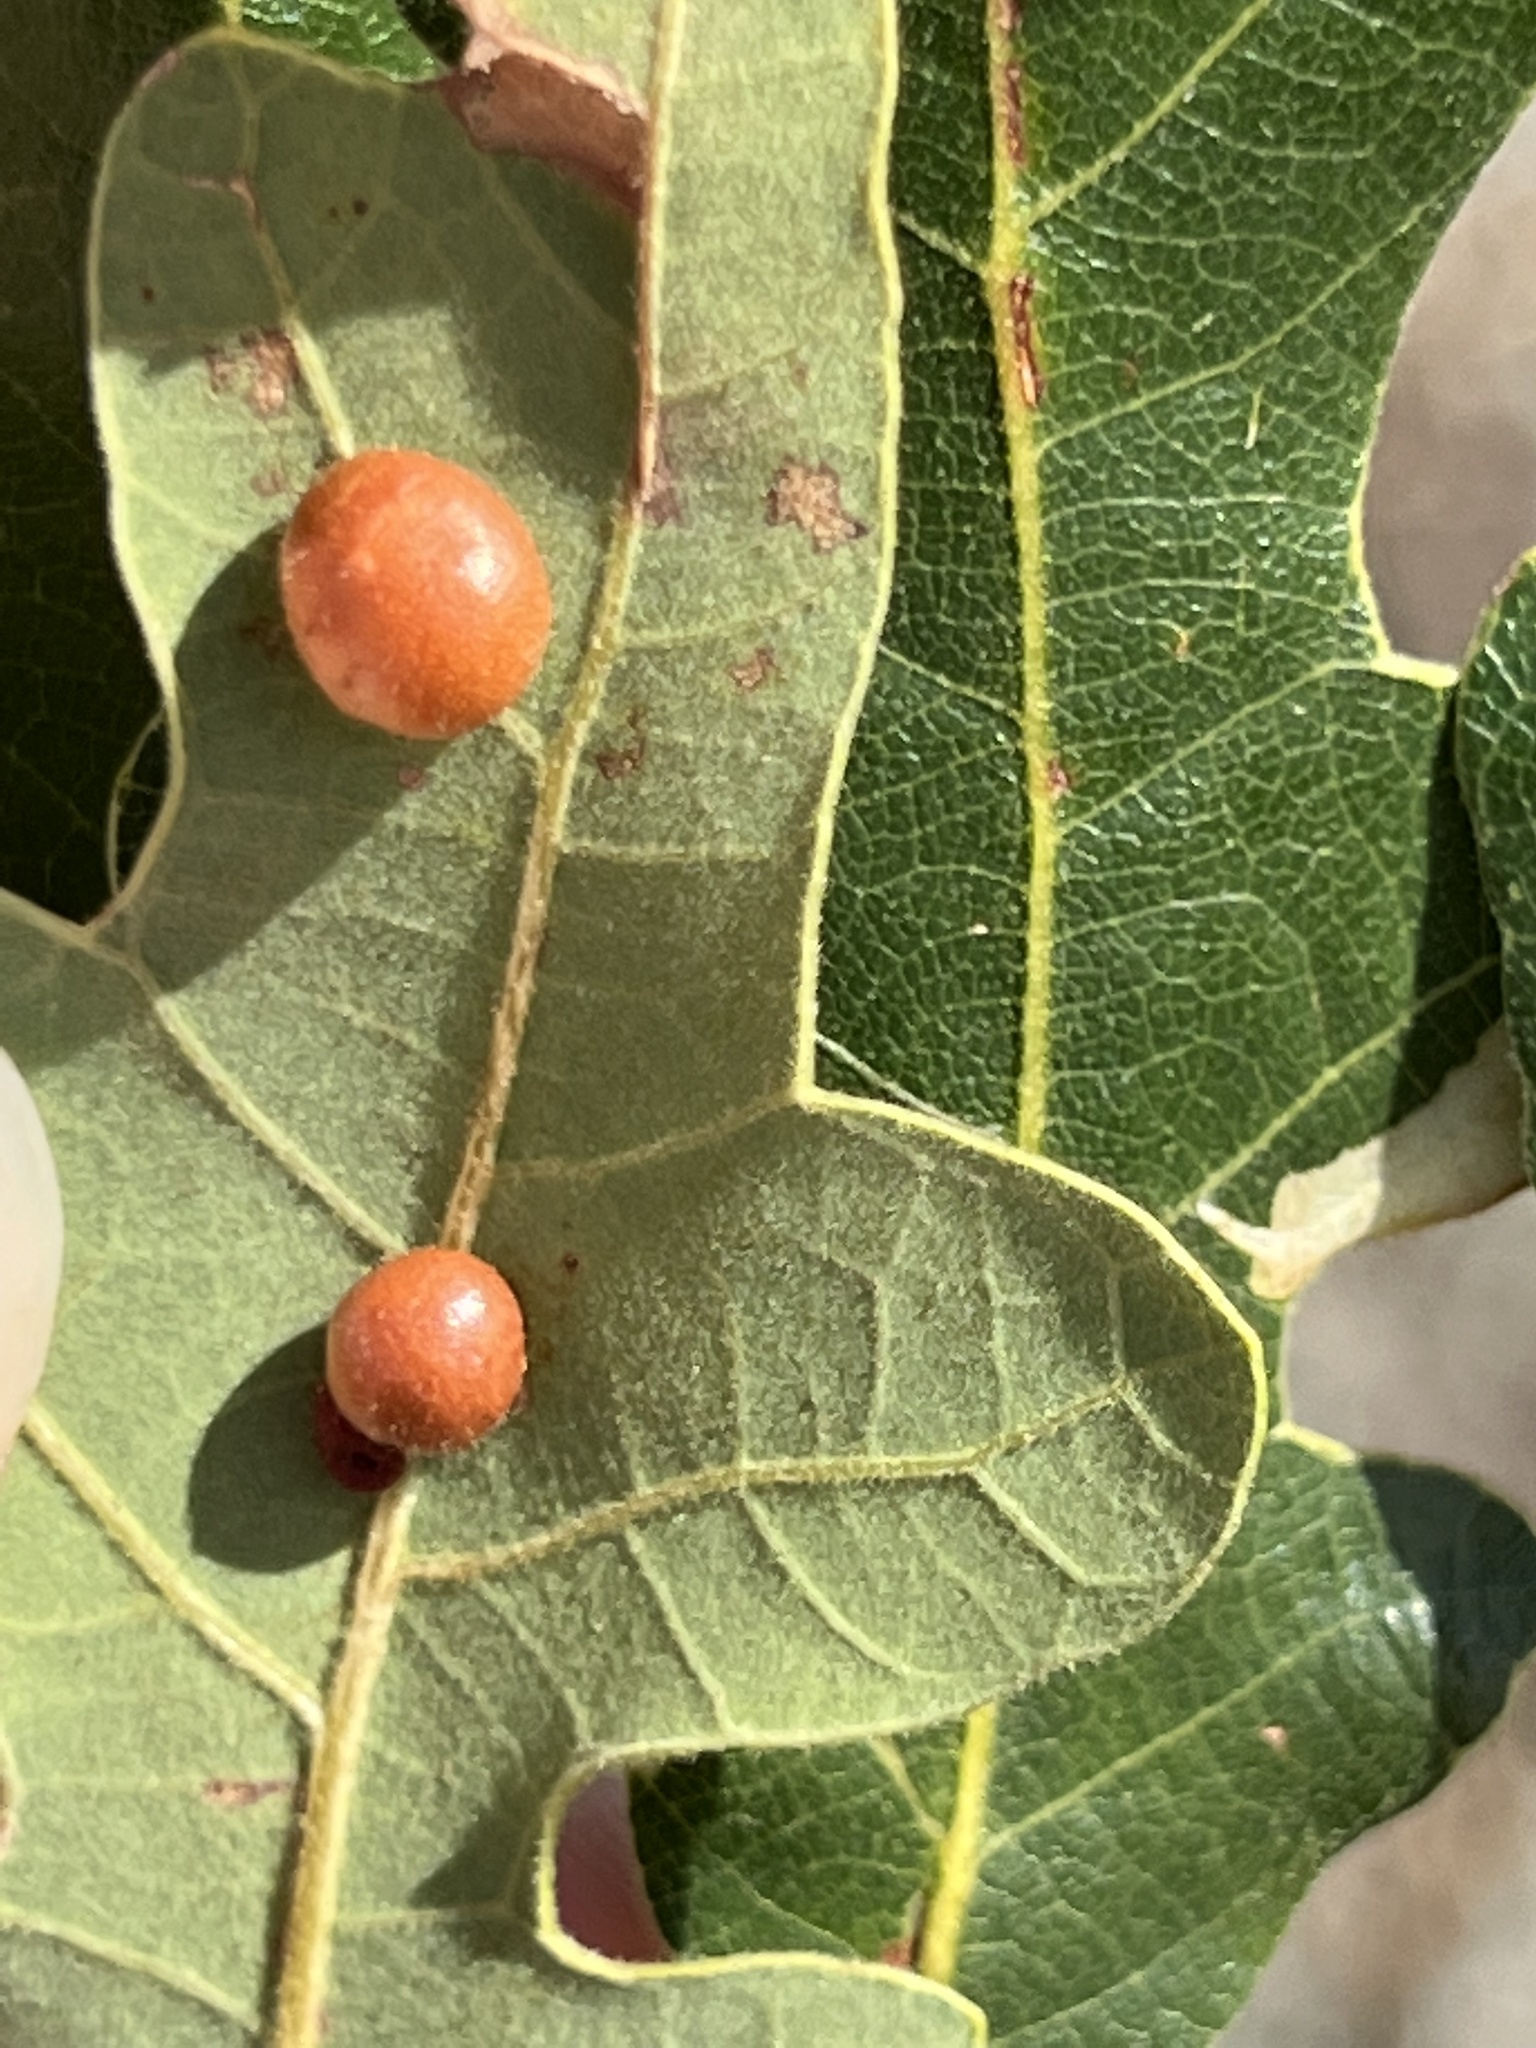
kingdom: Animalia
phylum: Arthropoda
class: Insecta
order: Hymenoptera
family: Cynipidae
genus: Trigonaspis
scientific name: Trigonaspis
